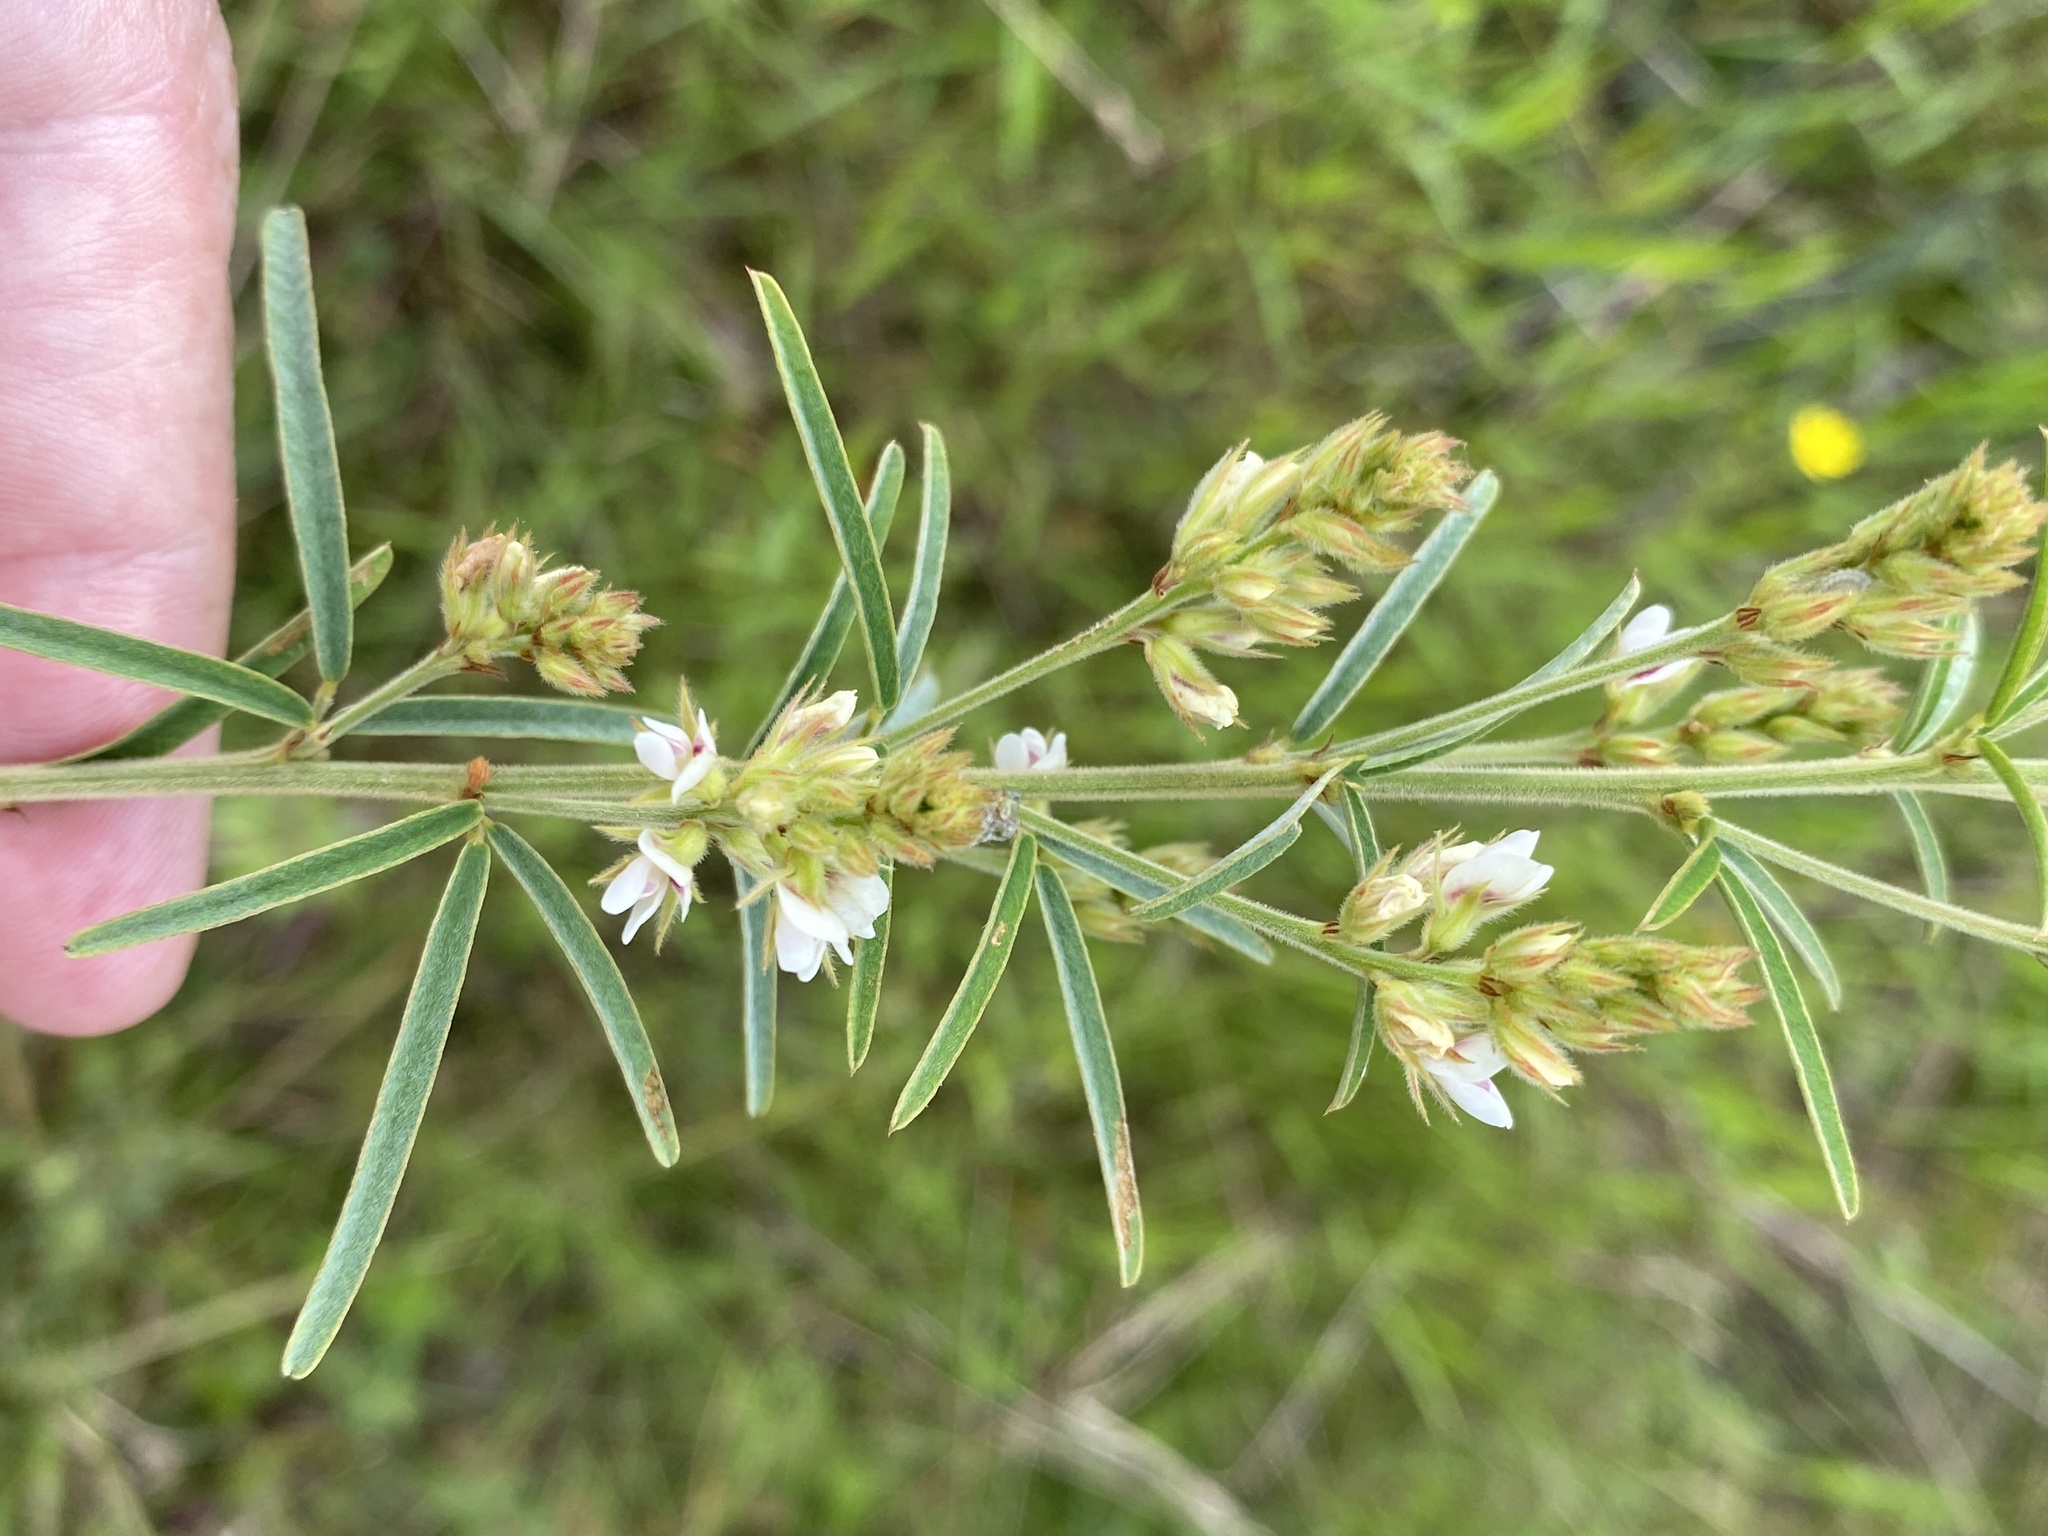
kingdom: Plantae
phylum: Tracheophyta
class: Magnoliopsida
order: Fabales
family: Fabaceae
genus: Lespedeza
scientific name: Lespedeza angustifolia
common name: Narrow-leaf bush-clover
